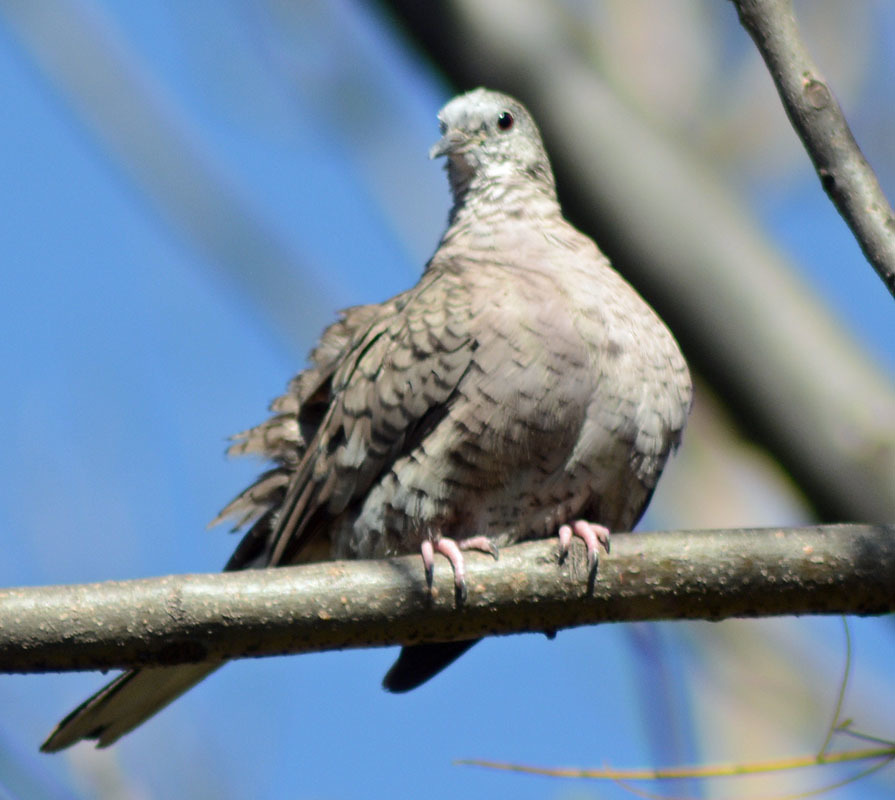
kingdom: Animalia
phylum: Chordata
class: Aves
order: Columbiformes
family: Columbidae
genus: Columbina
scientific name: Columbina inca
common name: Inca dove
